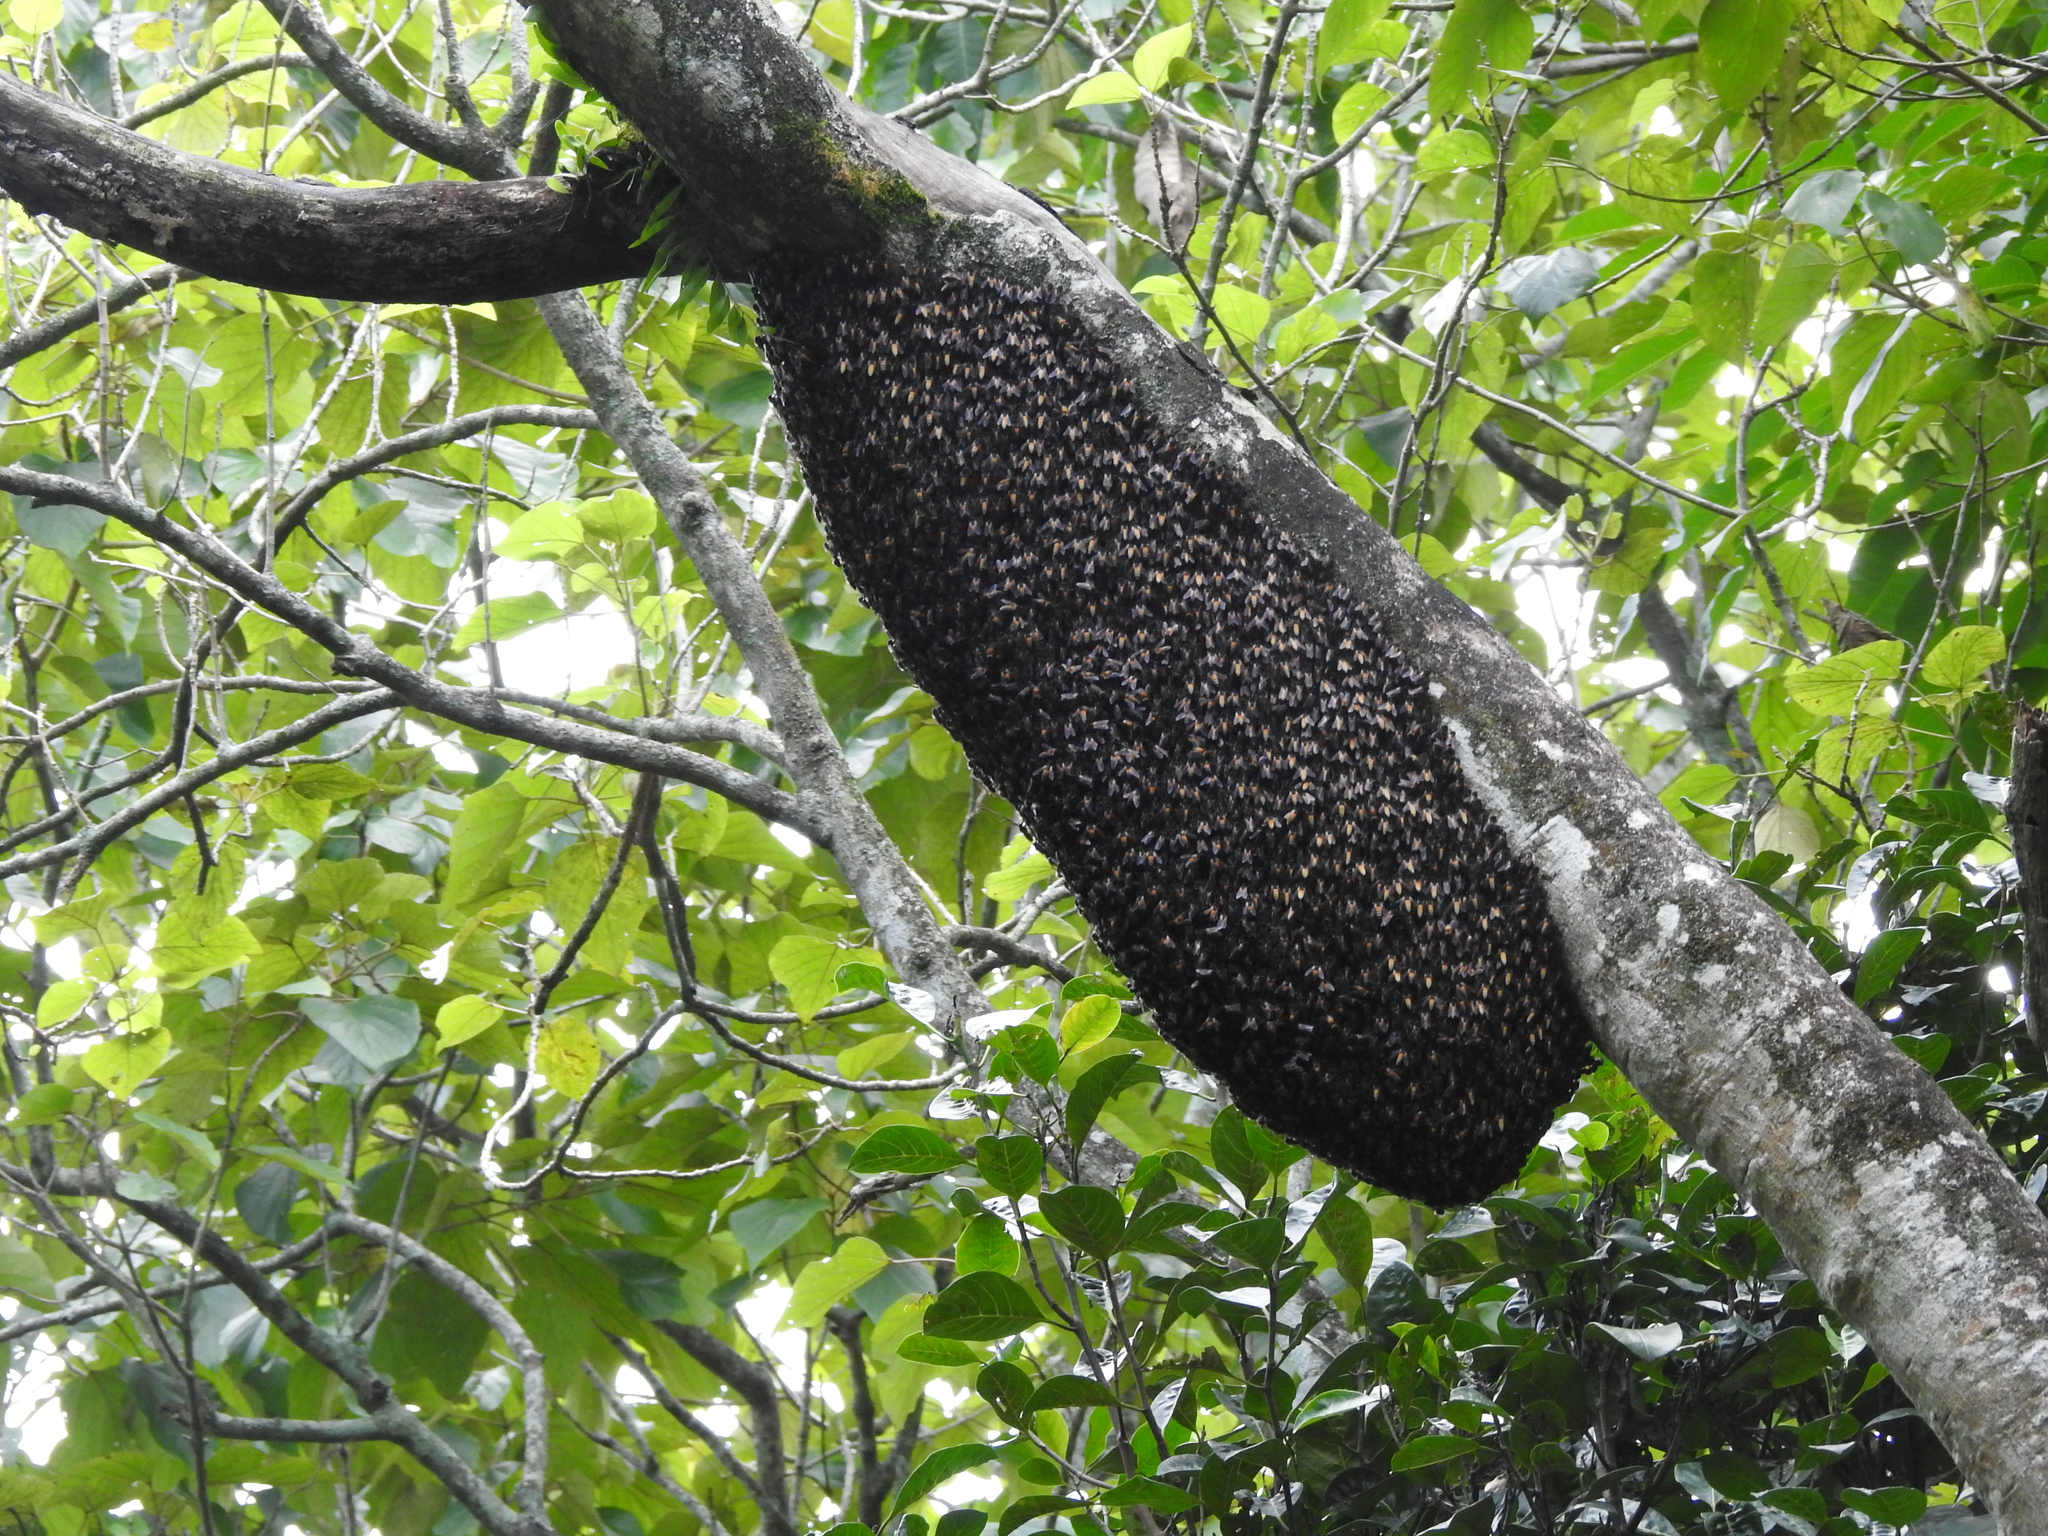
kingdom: Animalia
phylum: Arthropoda
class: Insecta
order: Hymenoptera
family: Apidae
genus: Apis
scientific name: Apis dorsata
